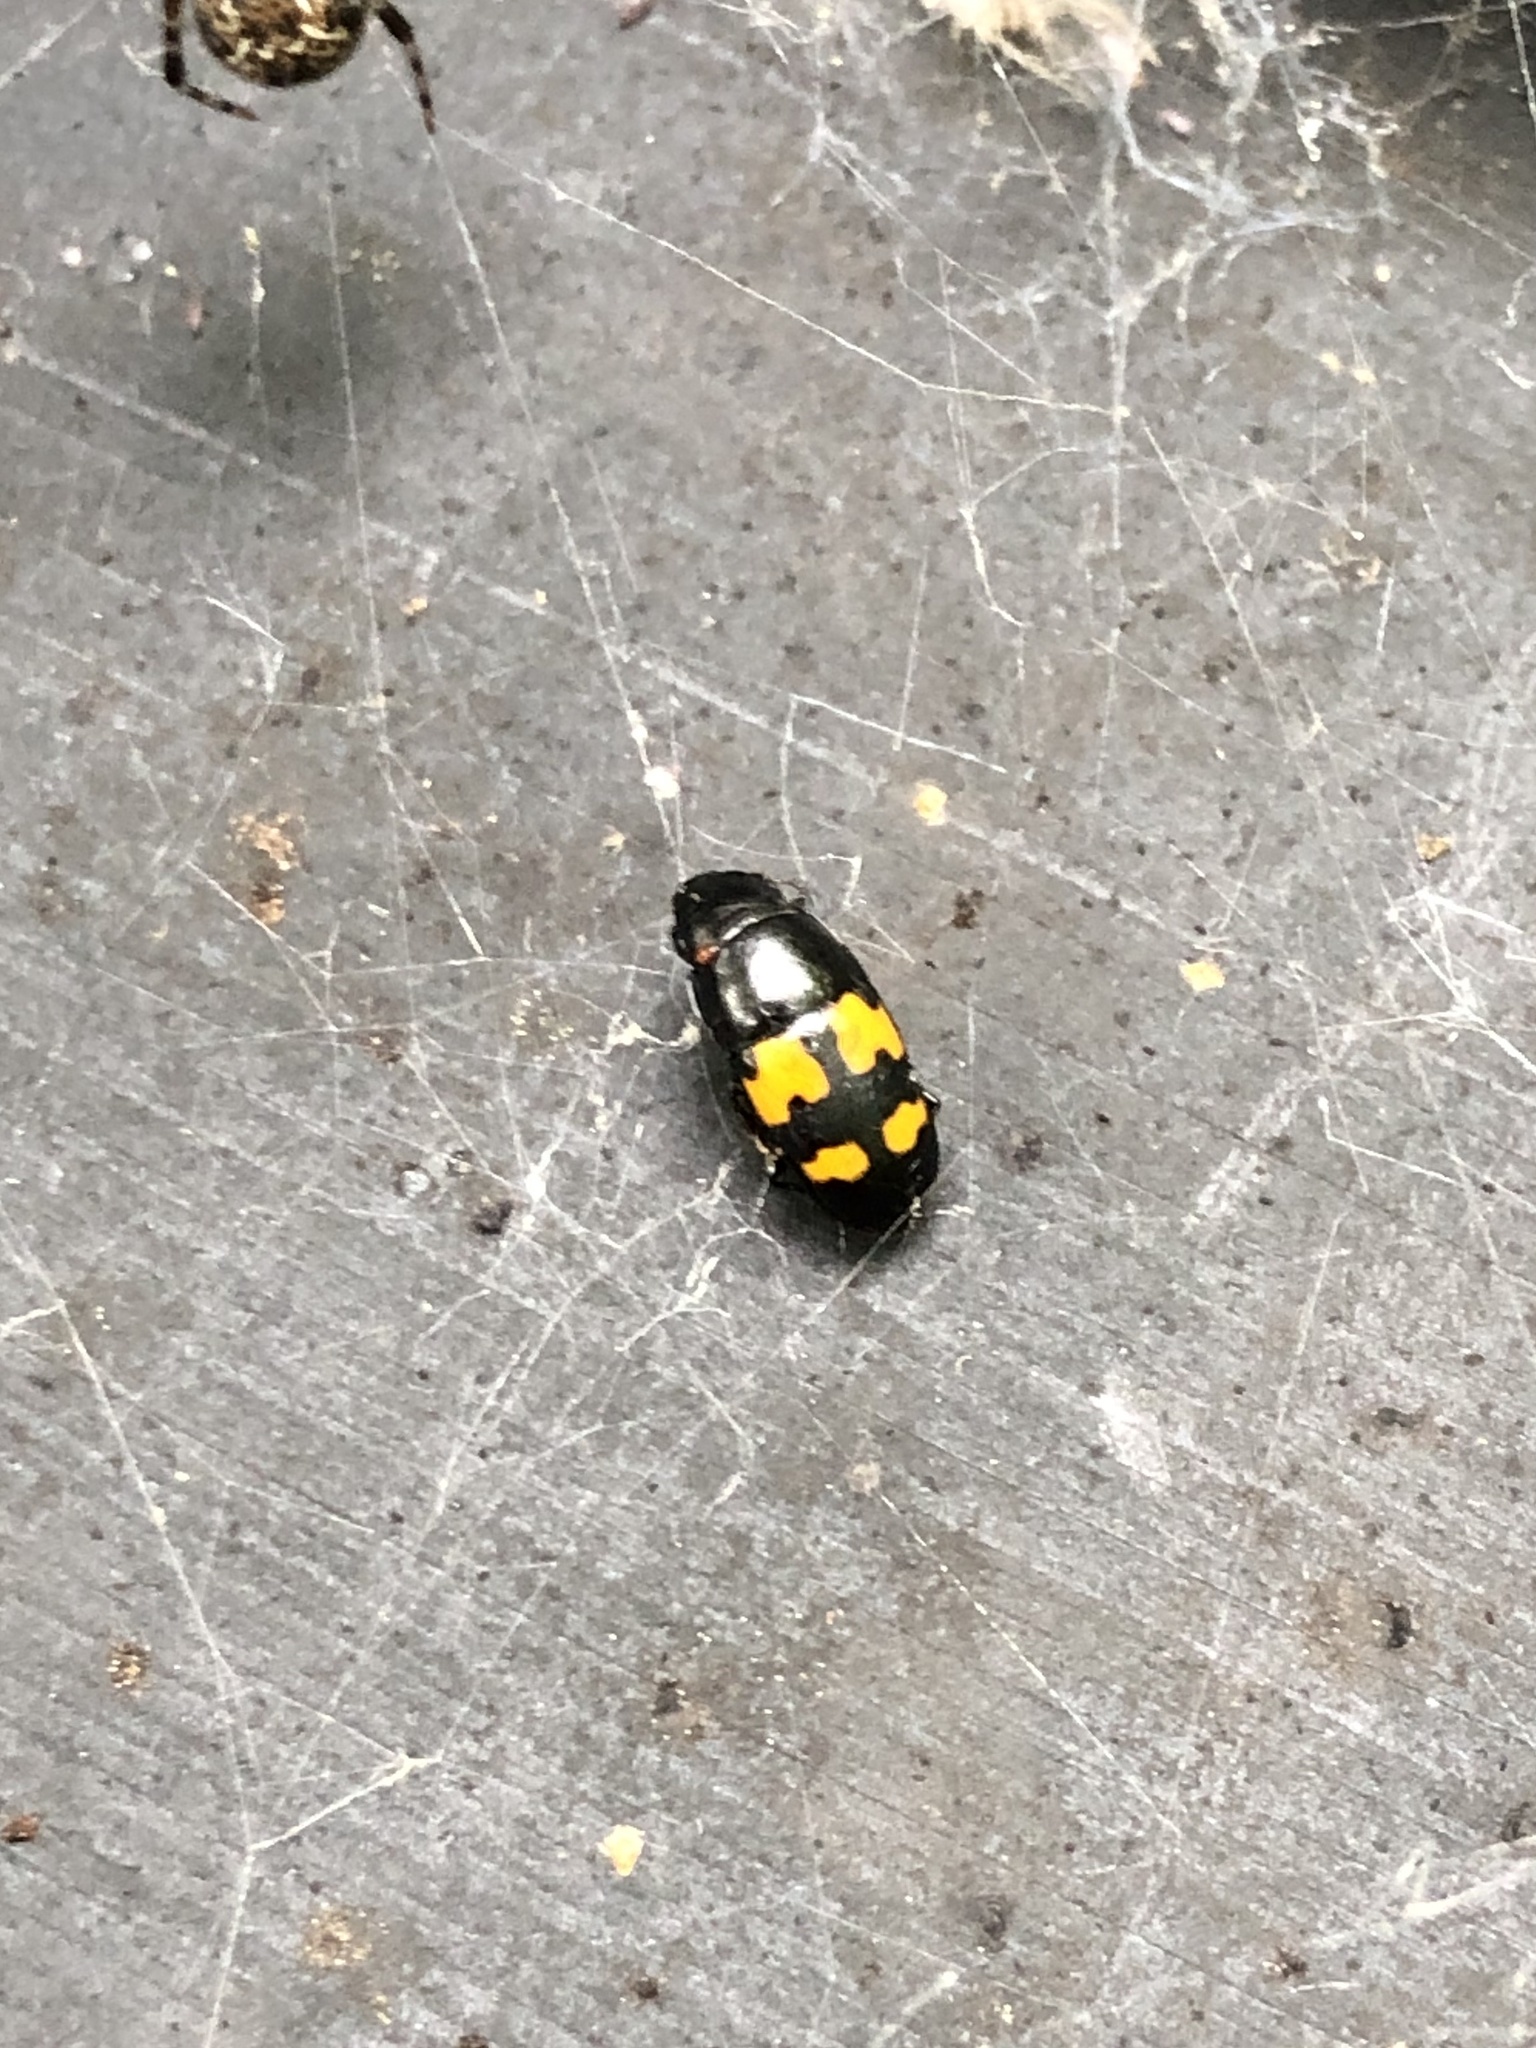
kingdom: Animalia
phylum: Arthropoda
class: Insecta
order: Coleoptera
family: Nitidulidae
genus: Glischrochilus
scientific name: Glischrochilus fasciatus
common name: Picnic beetle
